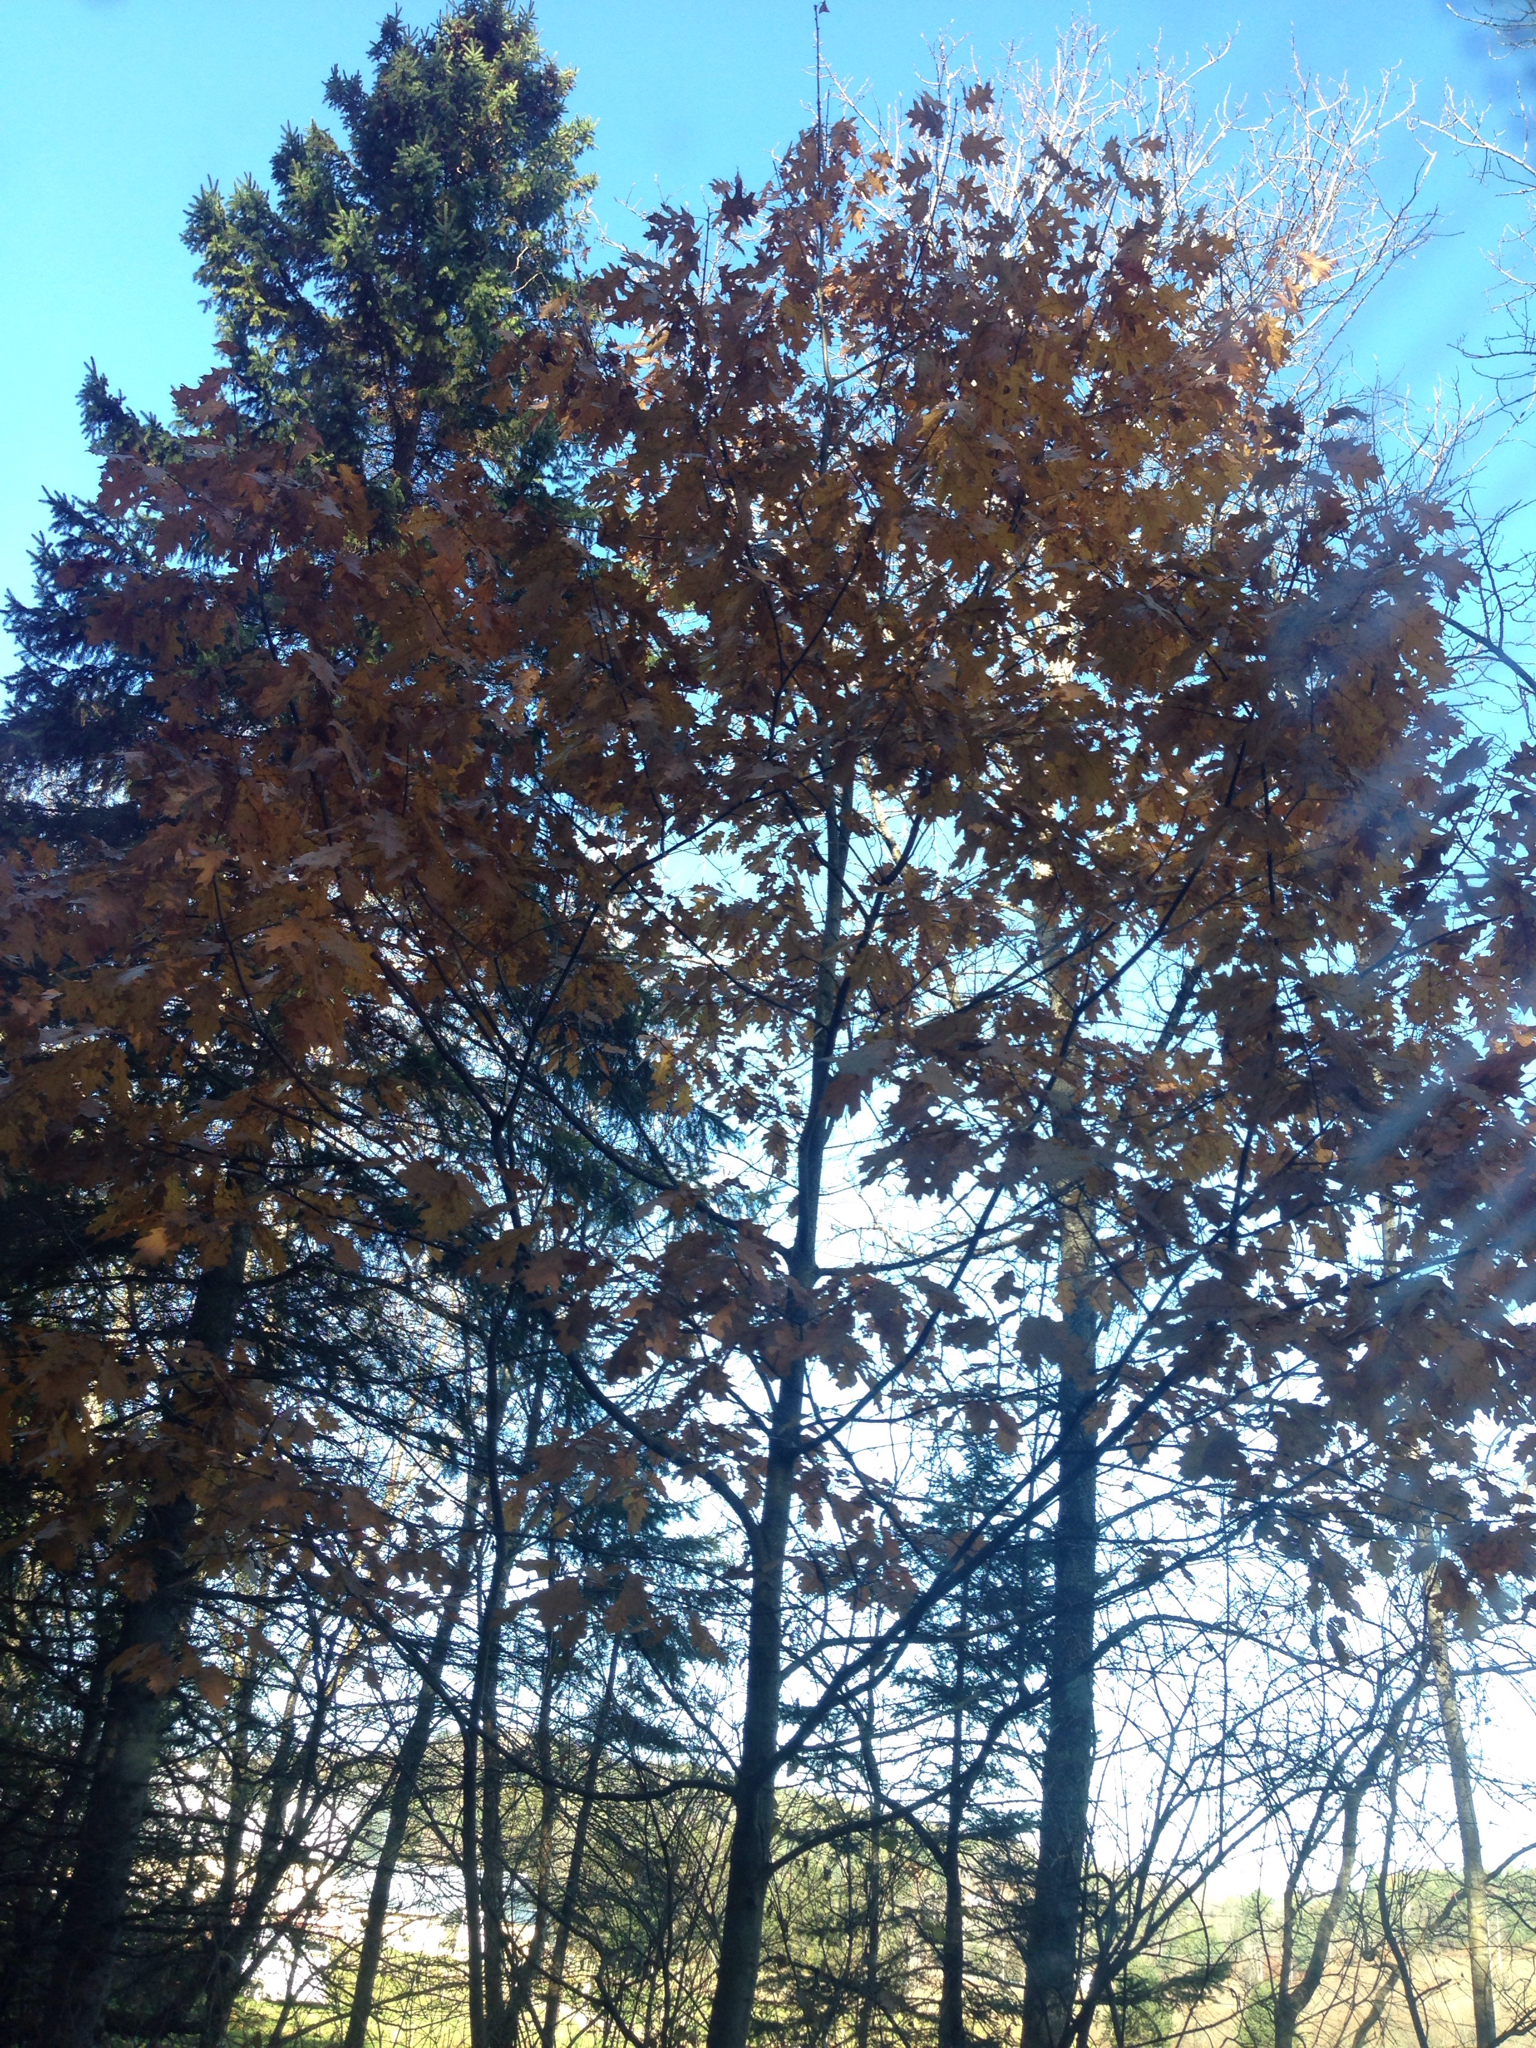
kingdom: Plantae
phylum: Tracheophyta
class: Magnoliopsida
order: Fagales
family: Fagaceae
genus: Quercus
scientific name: Quercus rubra
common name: Red oak
